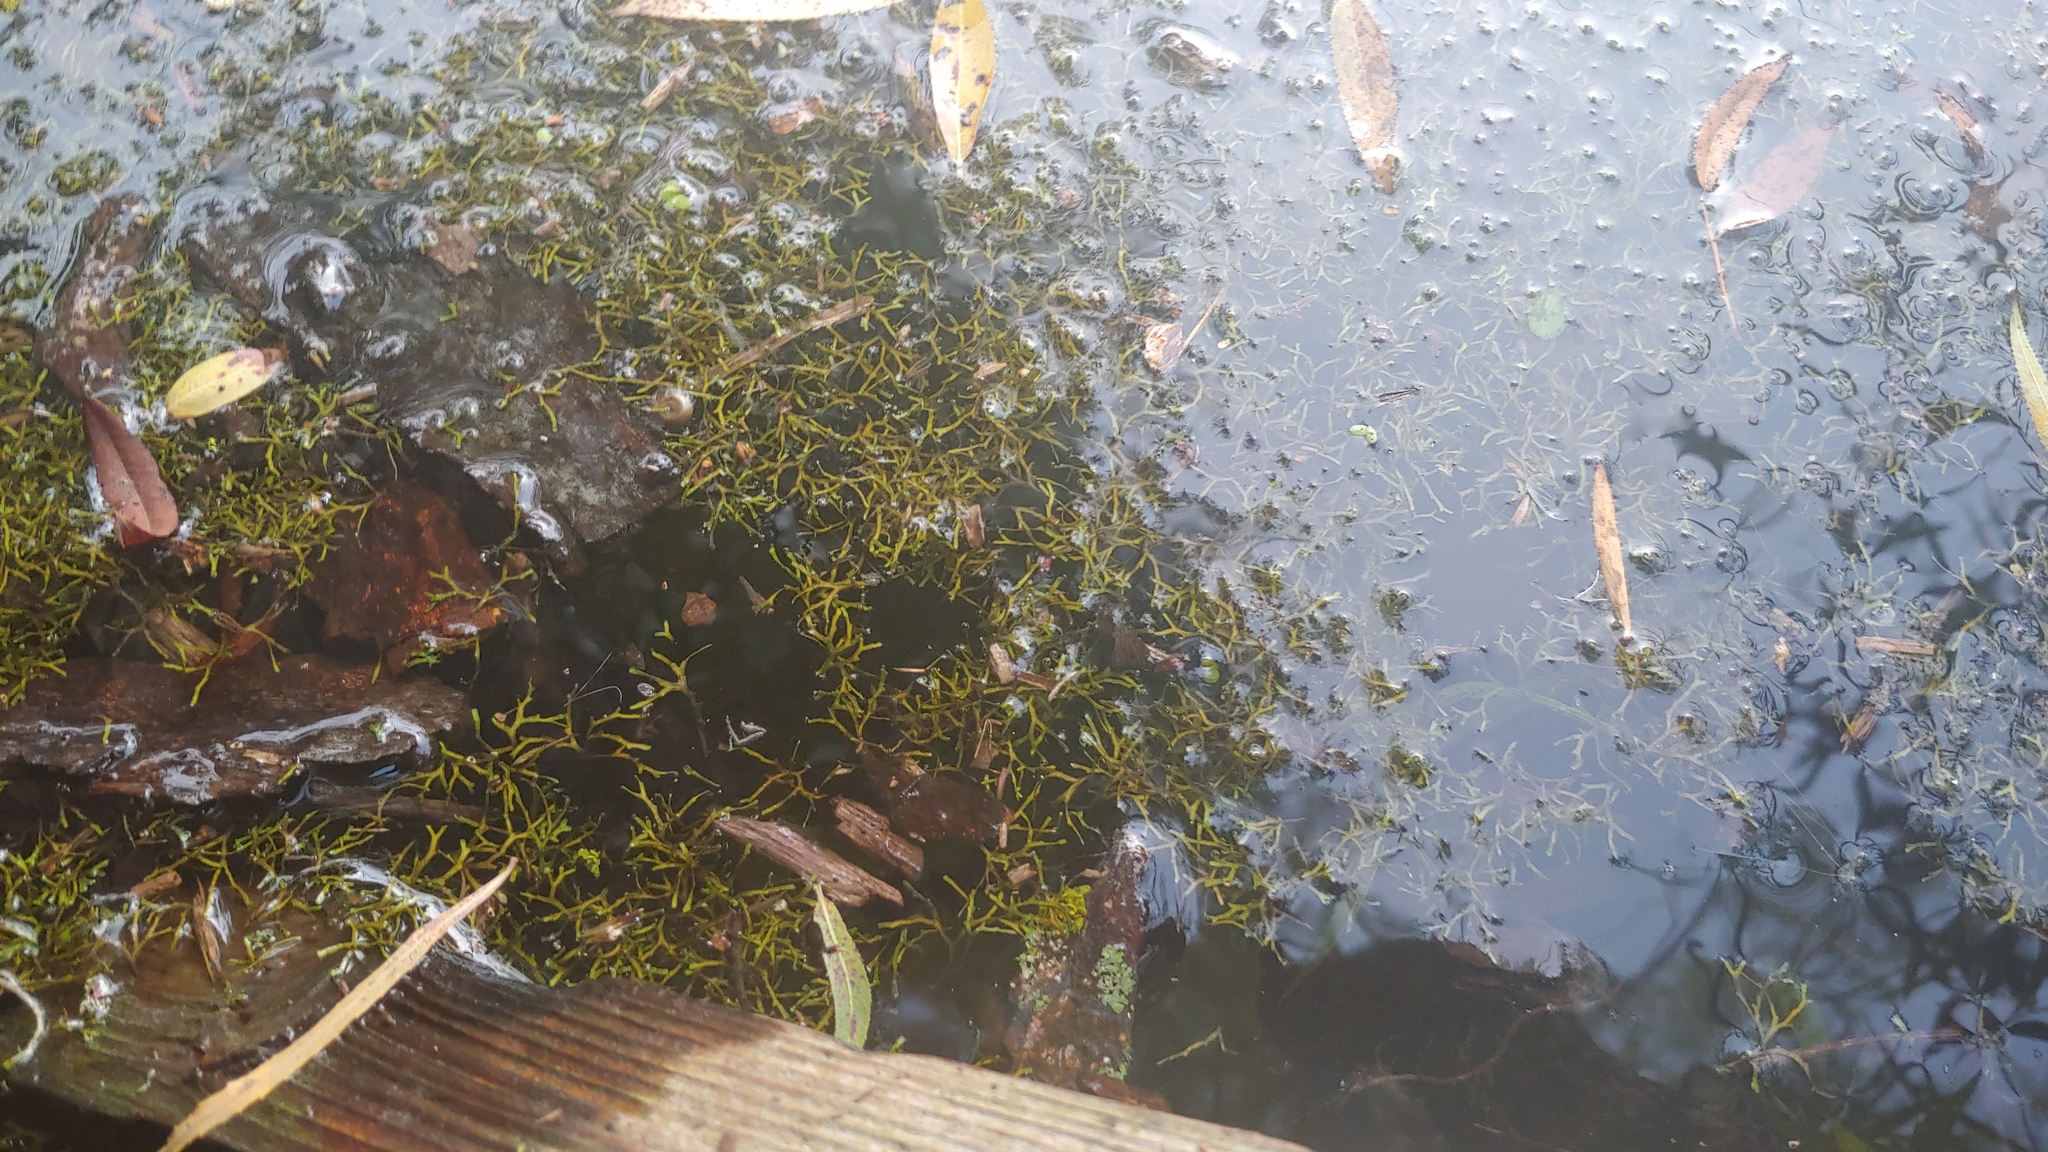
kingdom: Plantae
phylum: Marchantiophyta
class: Marchantiopsida
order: Marchantiales
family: Ricciaceae
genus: Riccia
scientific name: Riccia fluitans
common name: Floating crystalwort
